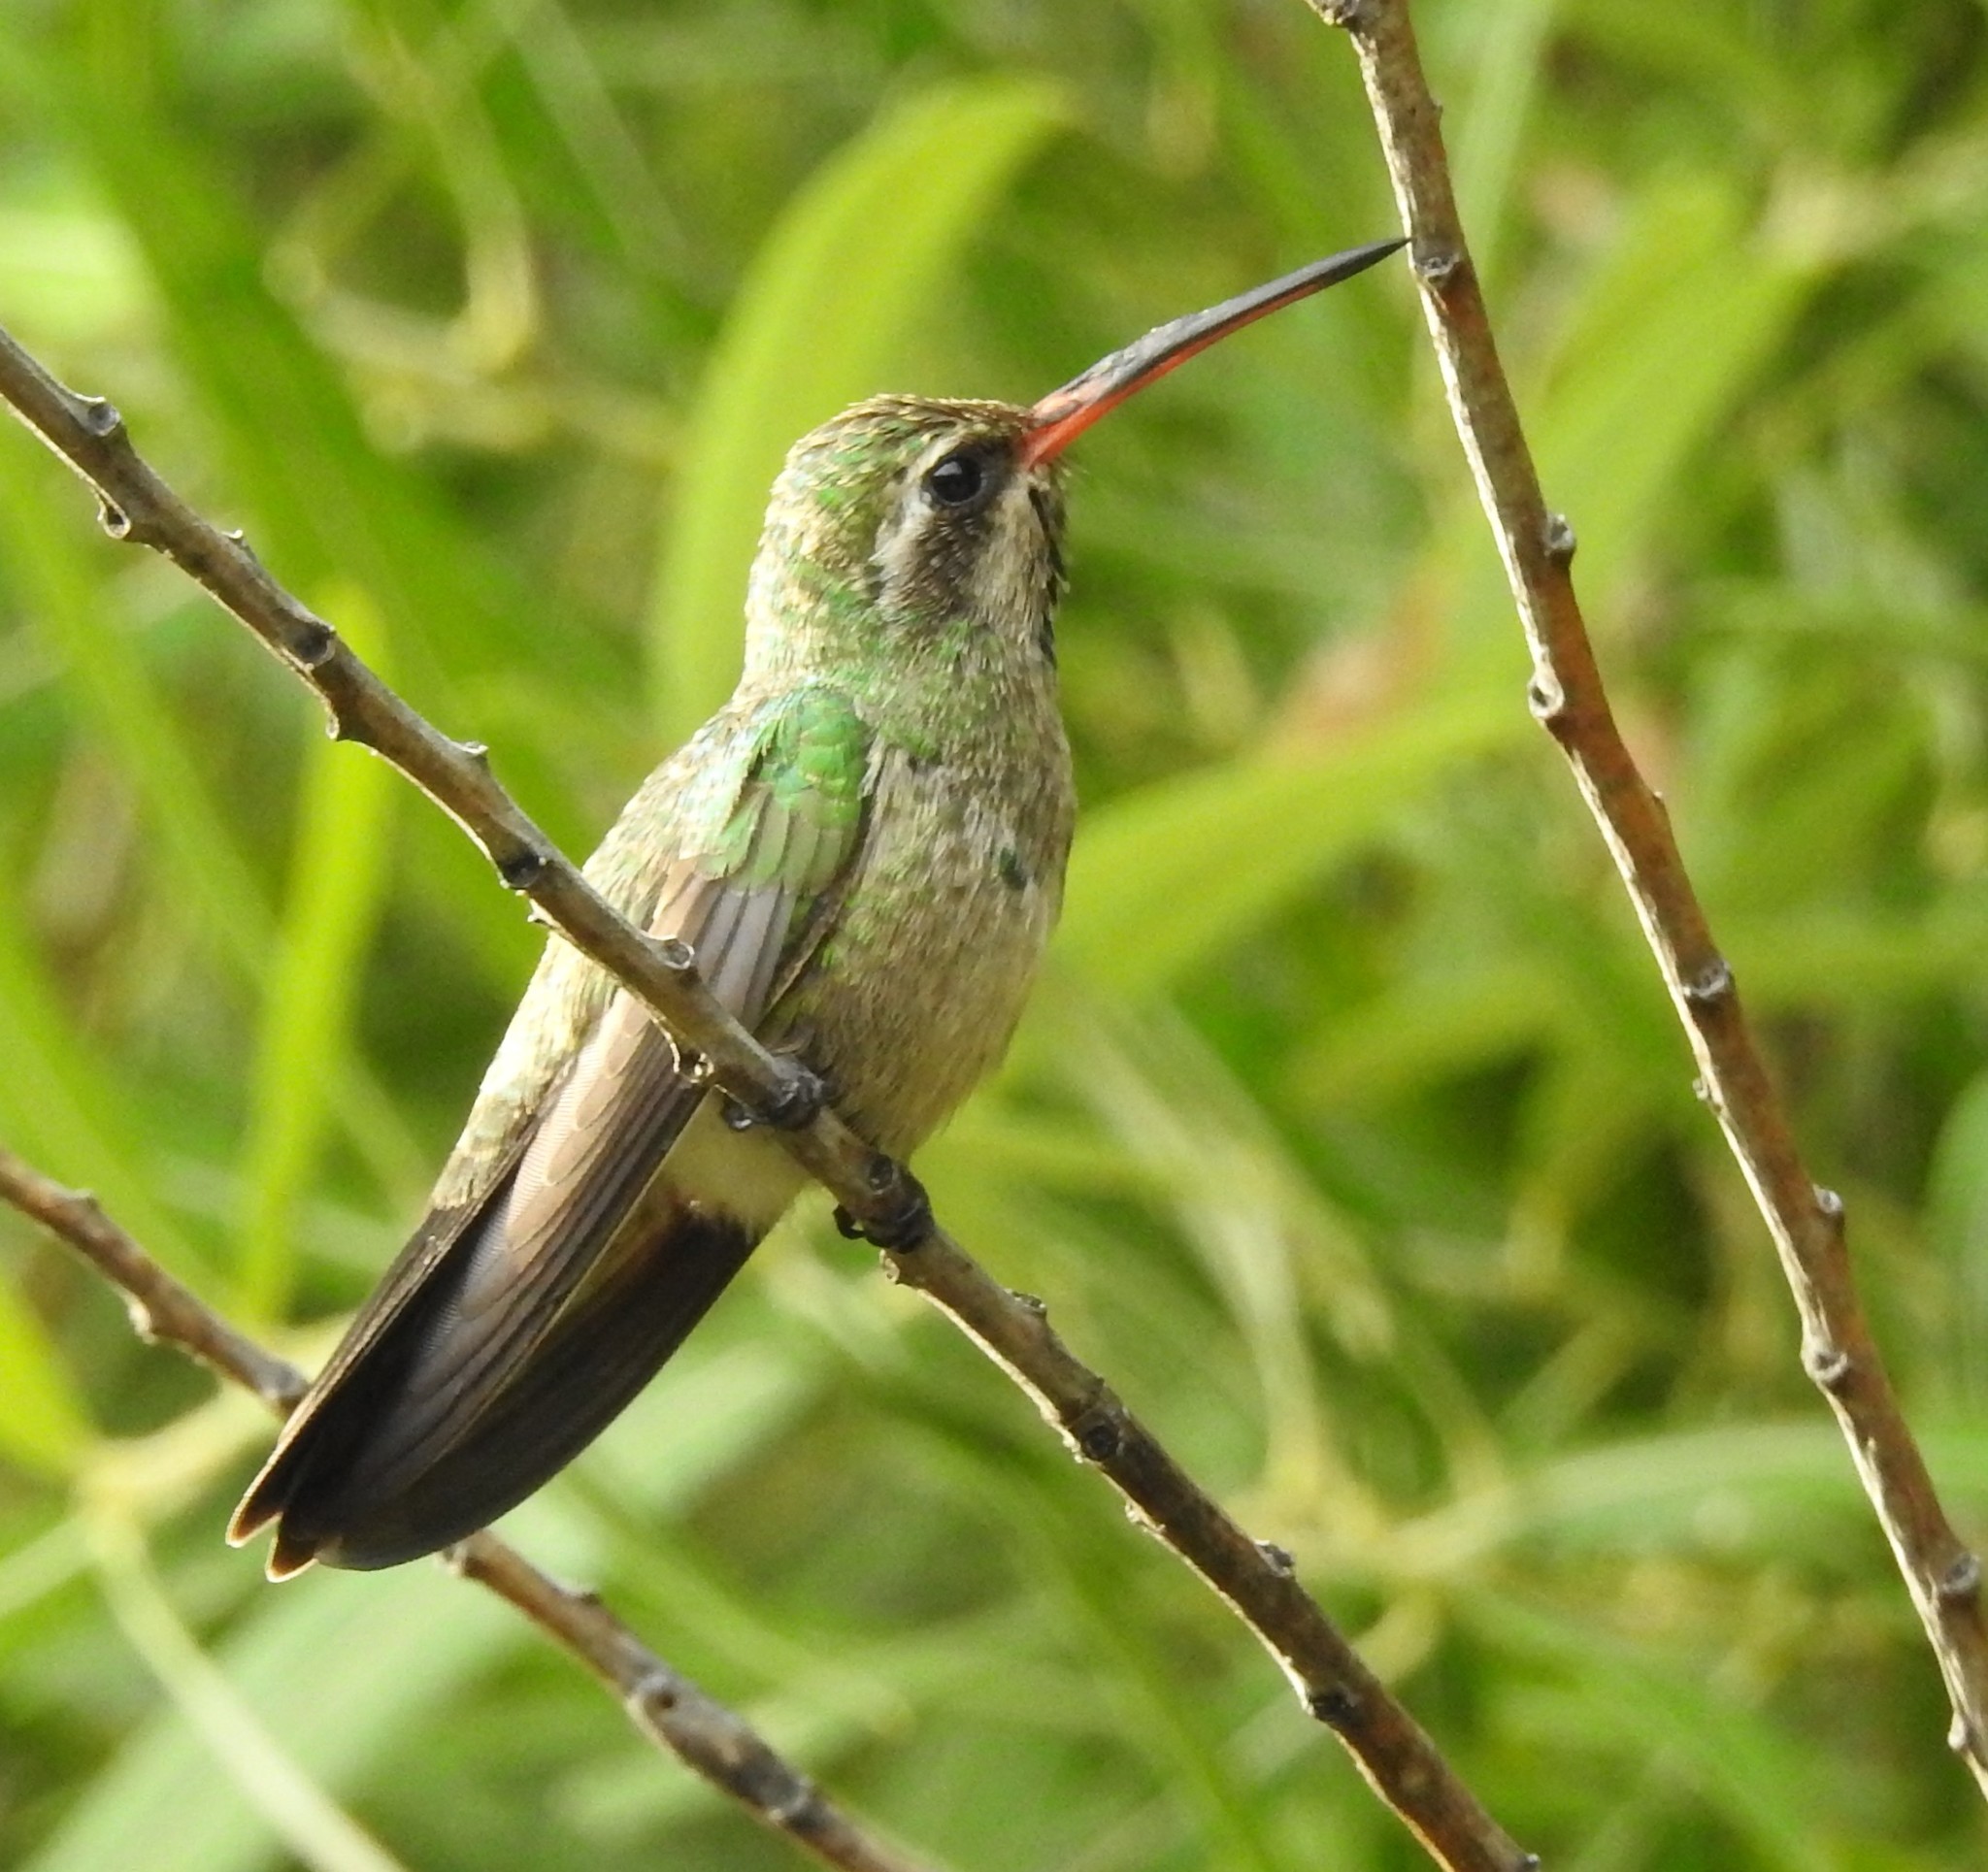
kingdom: Animalia
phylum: Chordata
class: Aves
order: Apodiformes
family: Trochilidae
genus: Cynanthus
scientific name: Cynanthus latirostris
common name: Broad-billed hummingbird
